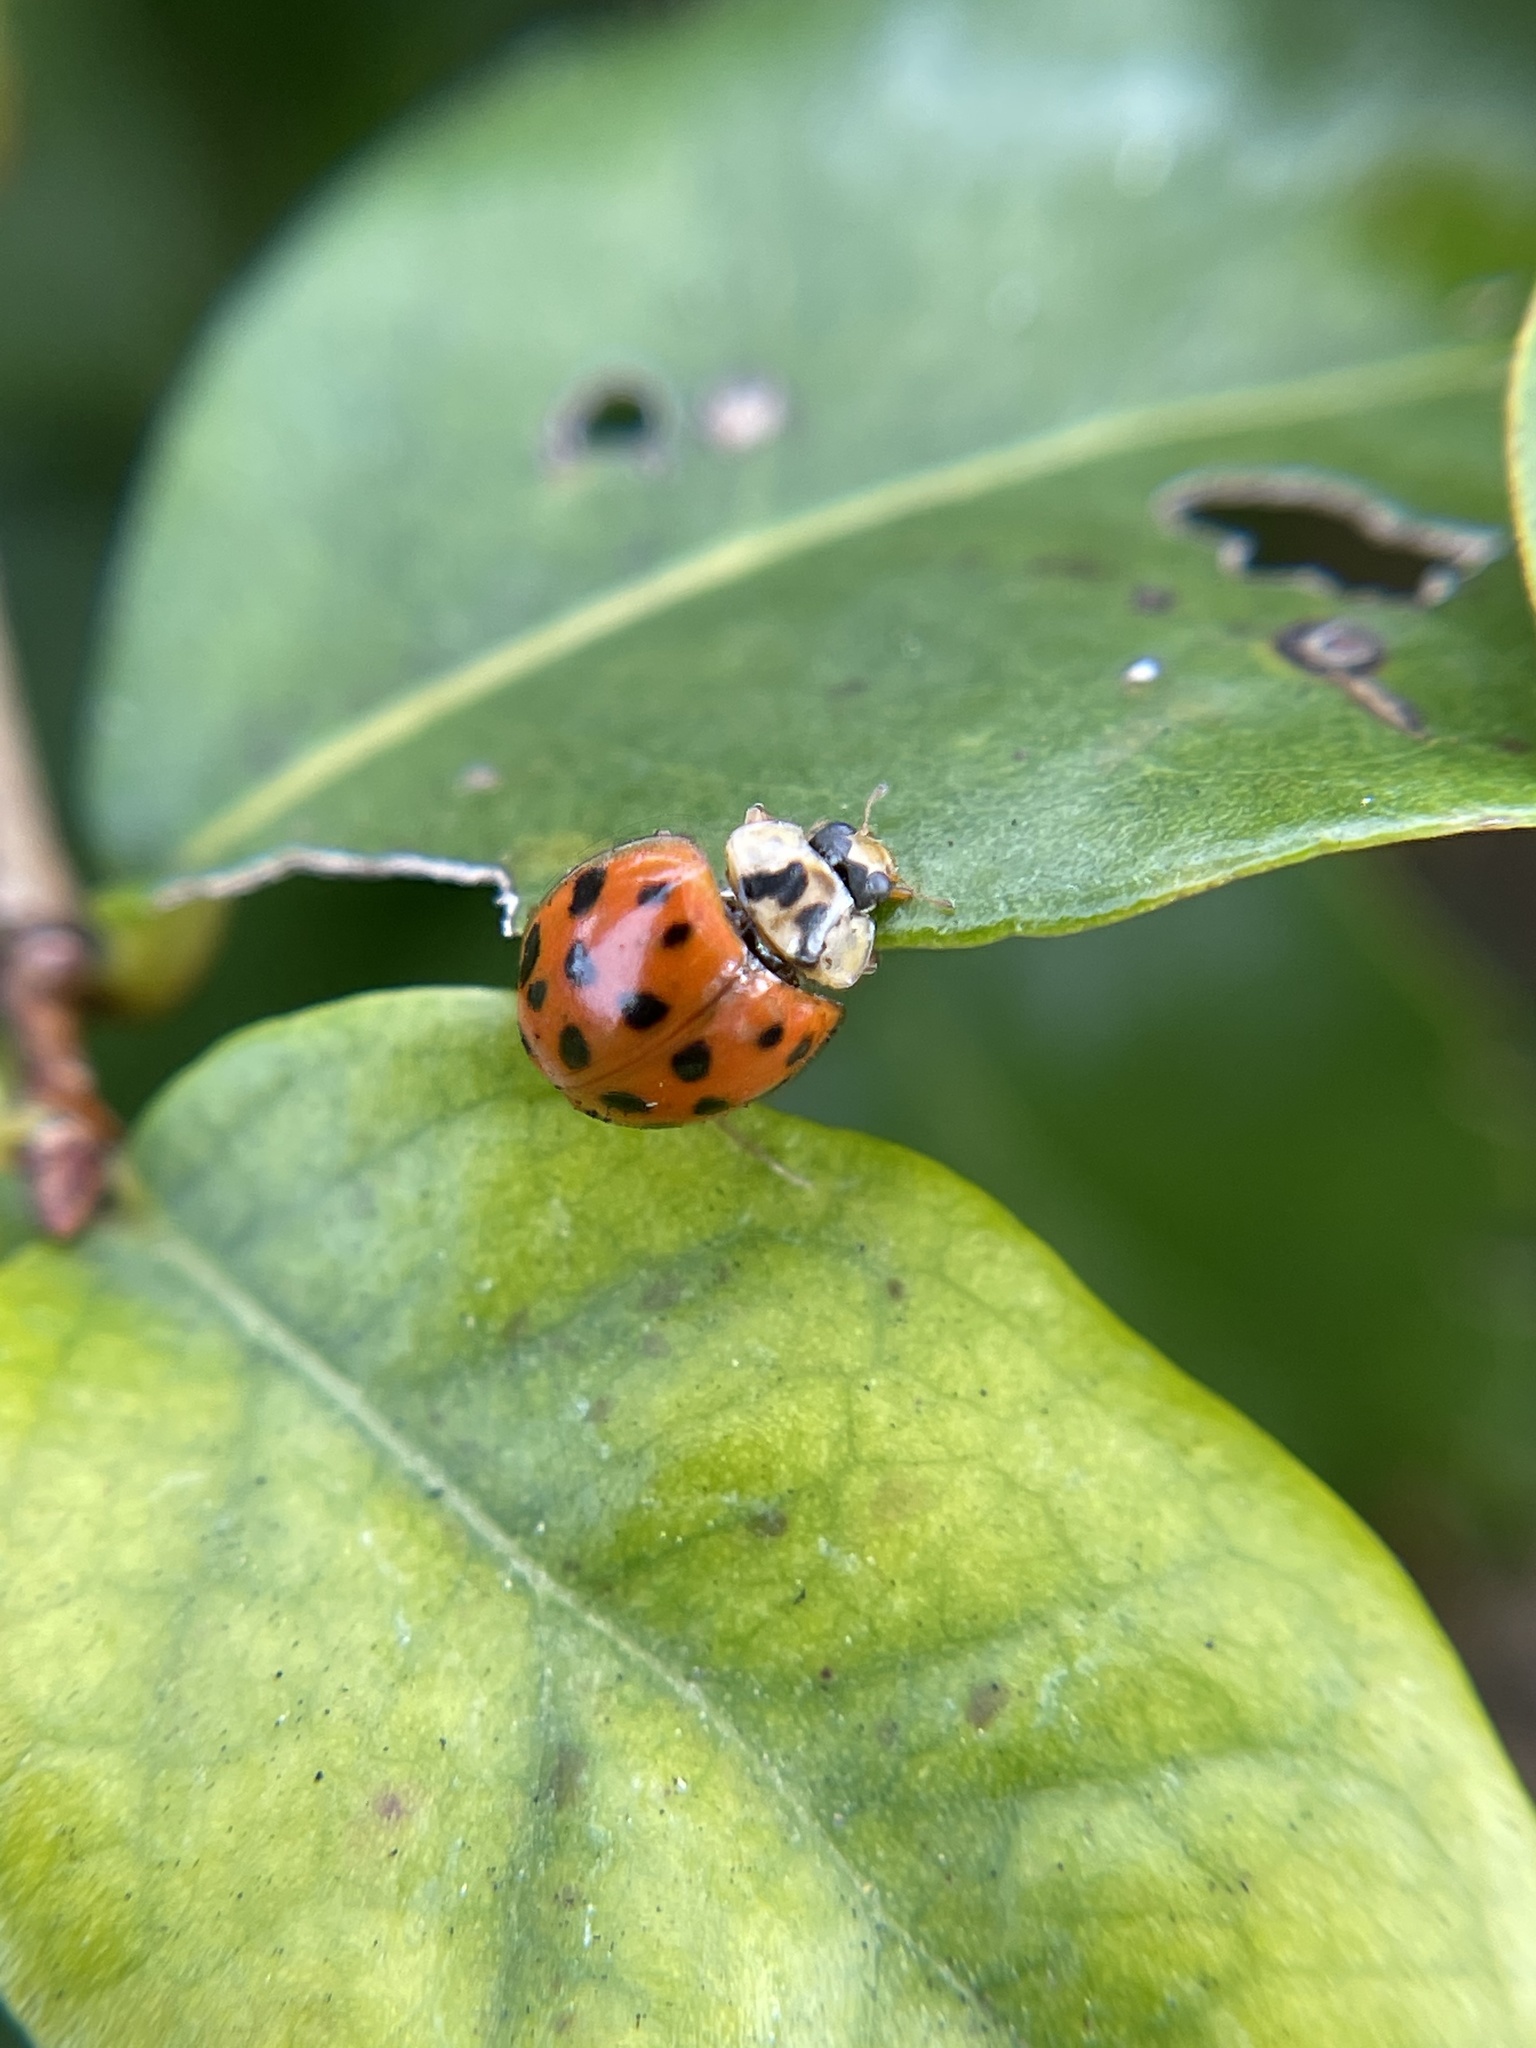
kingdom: Animalia
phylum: Arthropoda
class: Insecta
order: Coleoptera
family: Coccinellidae
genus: Harmonia
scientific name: Harmonia axyridis
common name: Harlequin ladybird
